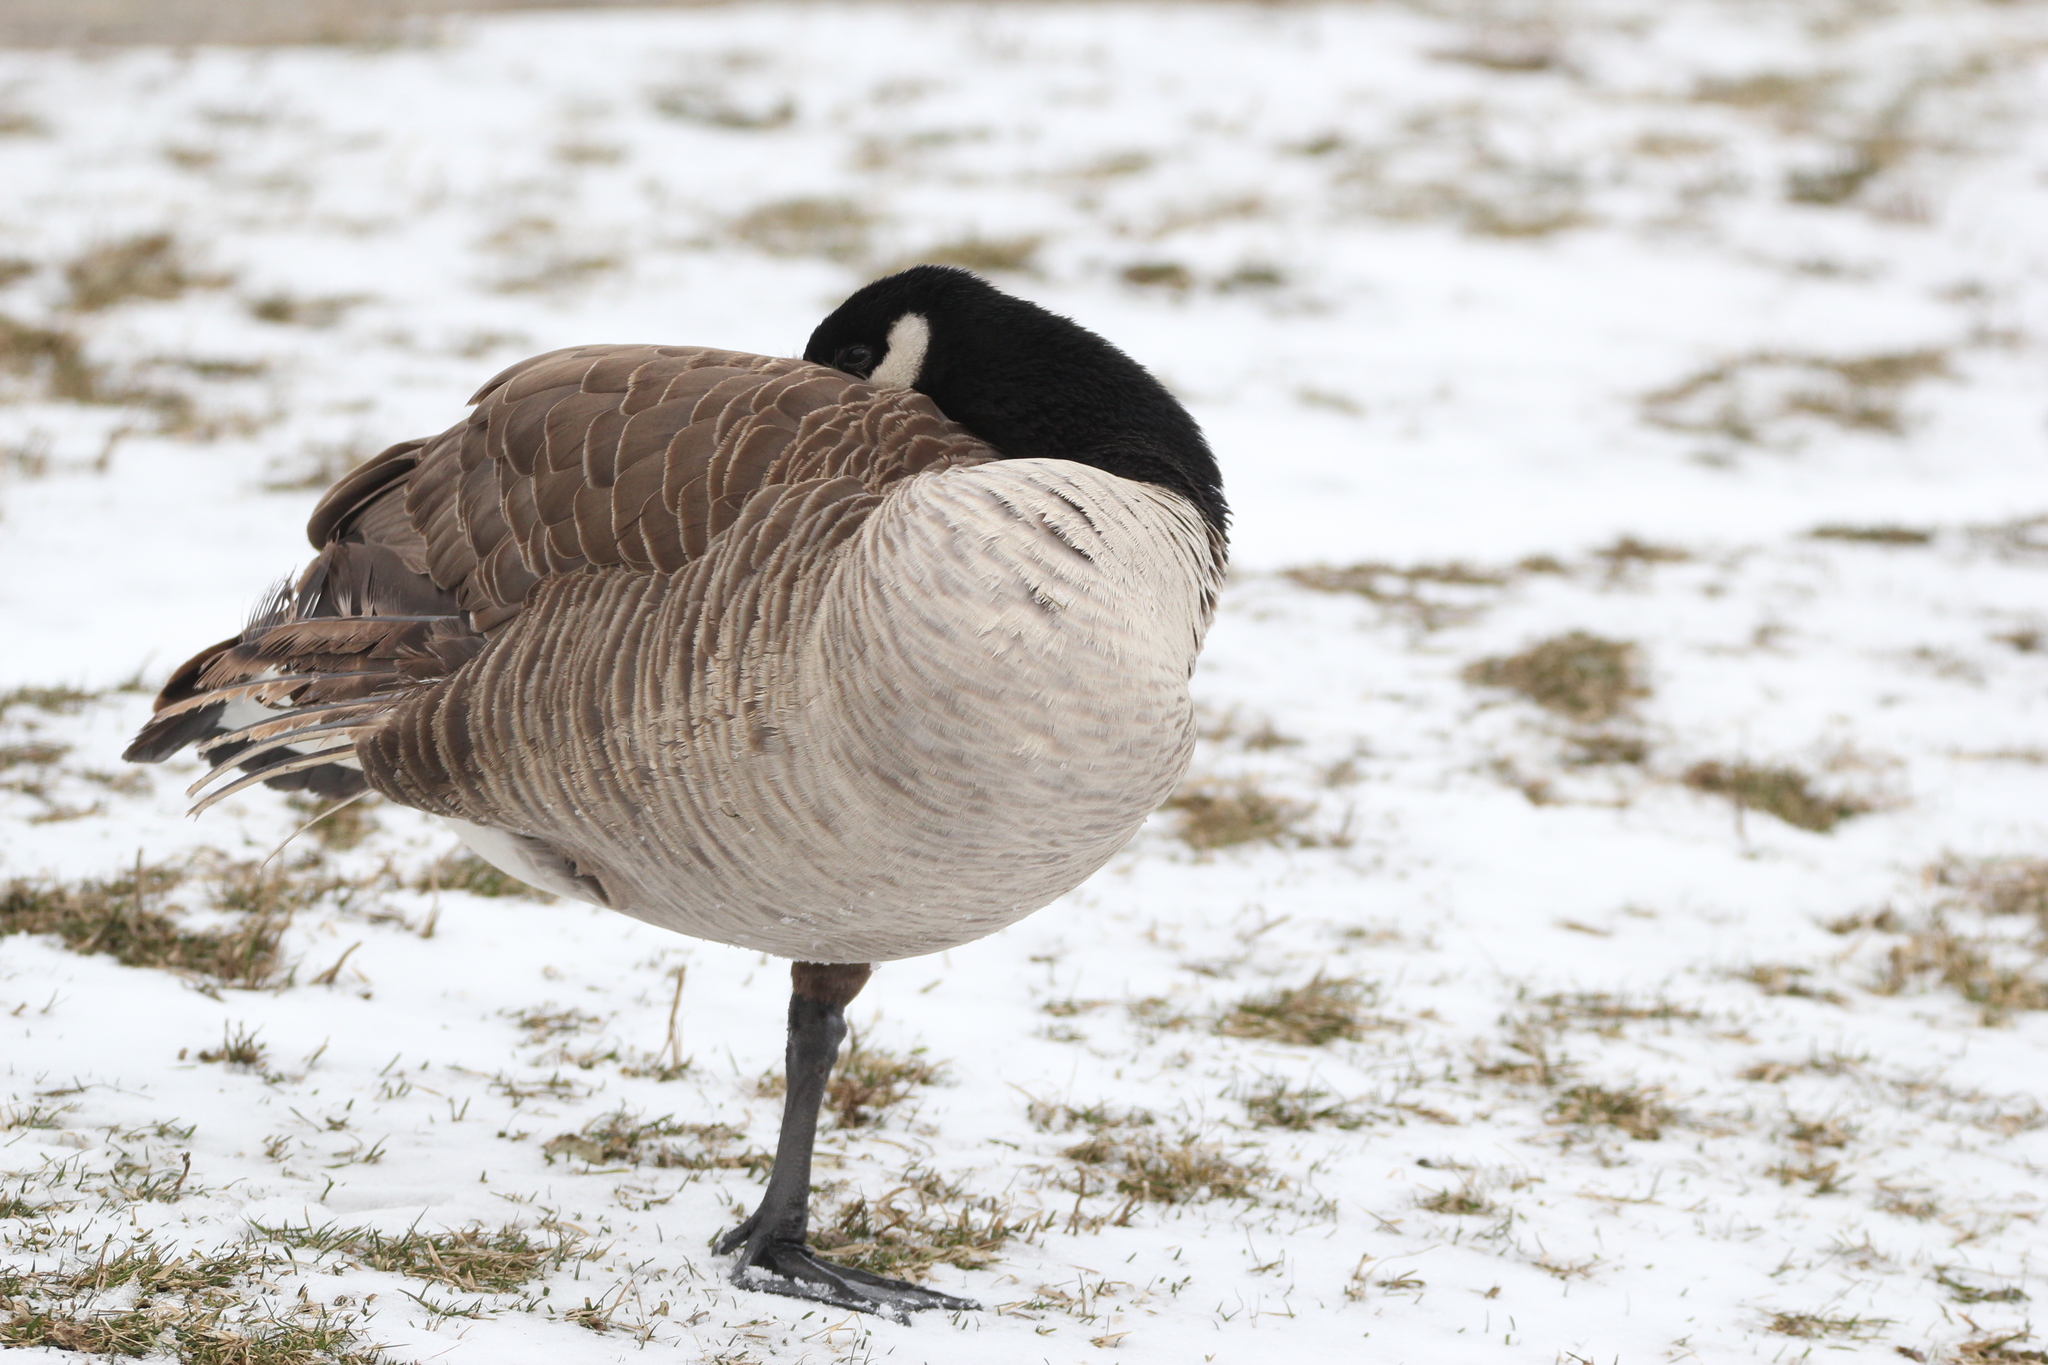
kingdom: Animalia
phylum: Chordata
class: Aves
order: Anseriformes
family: Anatidae
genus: Branta
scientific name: Branta canadensis
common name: Canada goose
